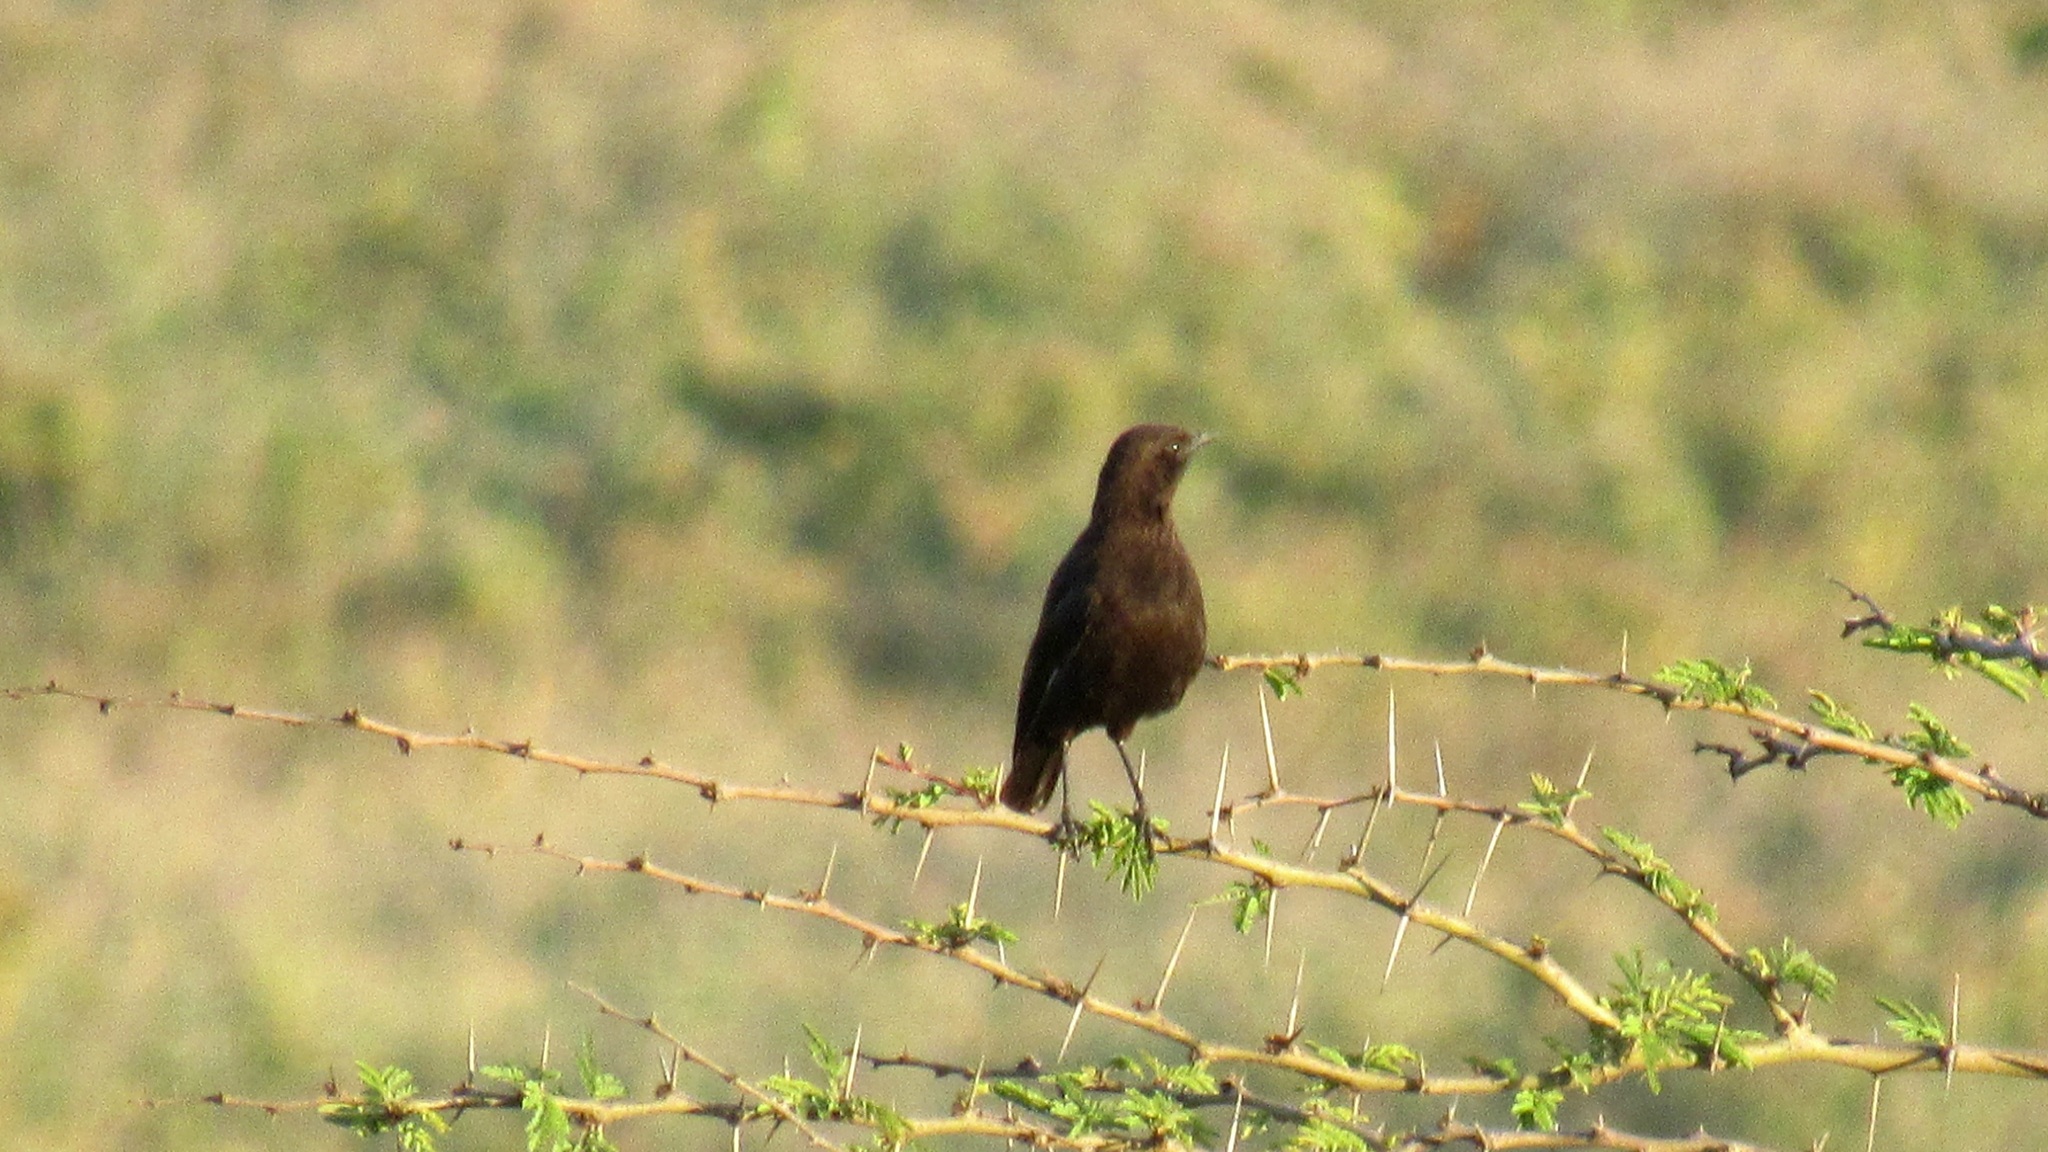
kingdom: Animalia
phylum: Chordata
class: Aves
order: Passeriformes
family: Muscicapidae
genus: Myrmecocichla
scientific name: Myrmecocichla aethiops
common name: Anteater chat
